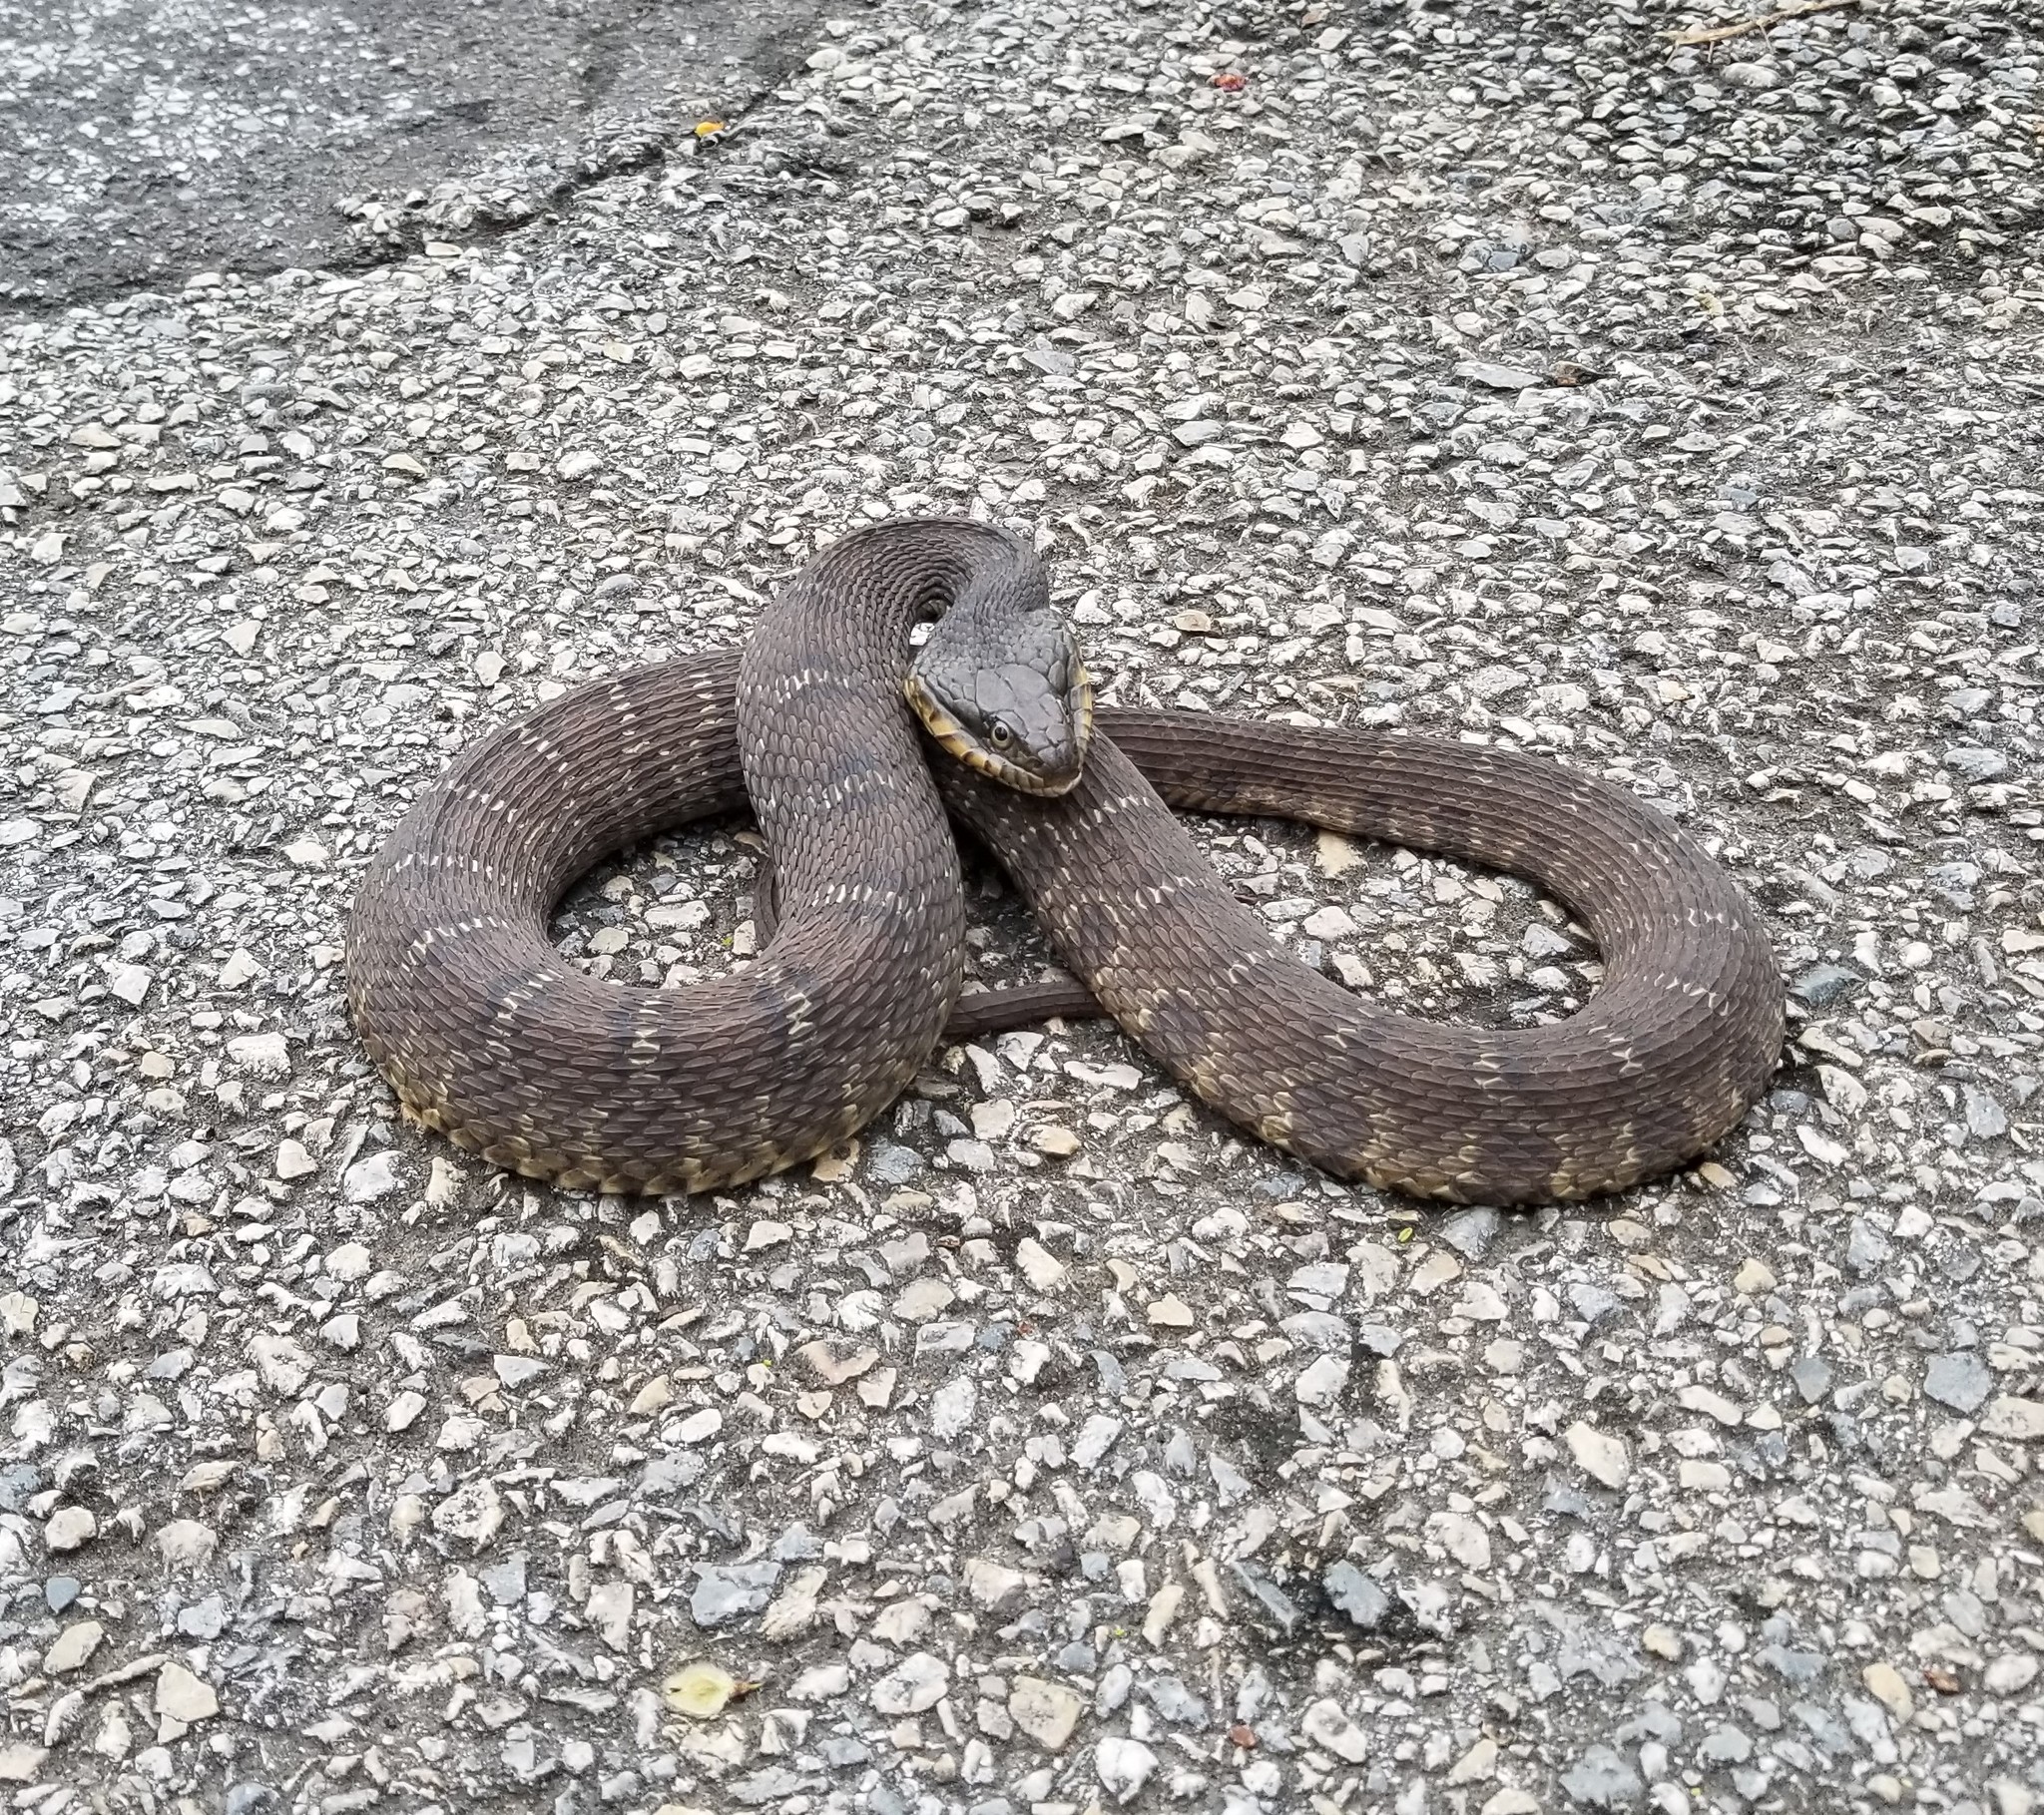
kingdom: Animalia
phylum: Chordata
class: Squamata
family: Colubridae
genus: Nerodia
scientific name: Nerodia erythrogaster
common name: Plainbelly water snake
